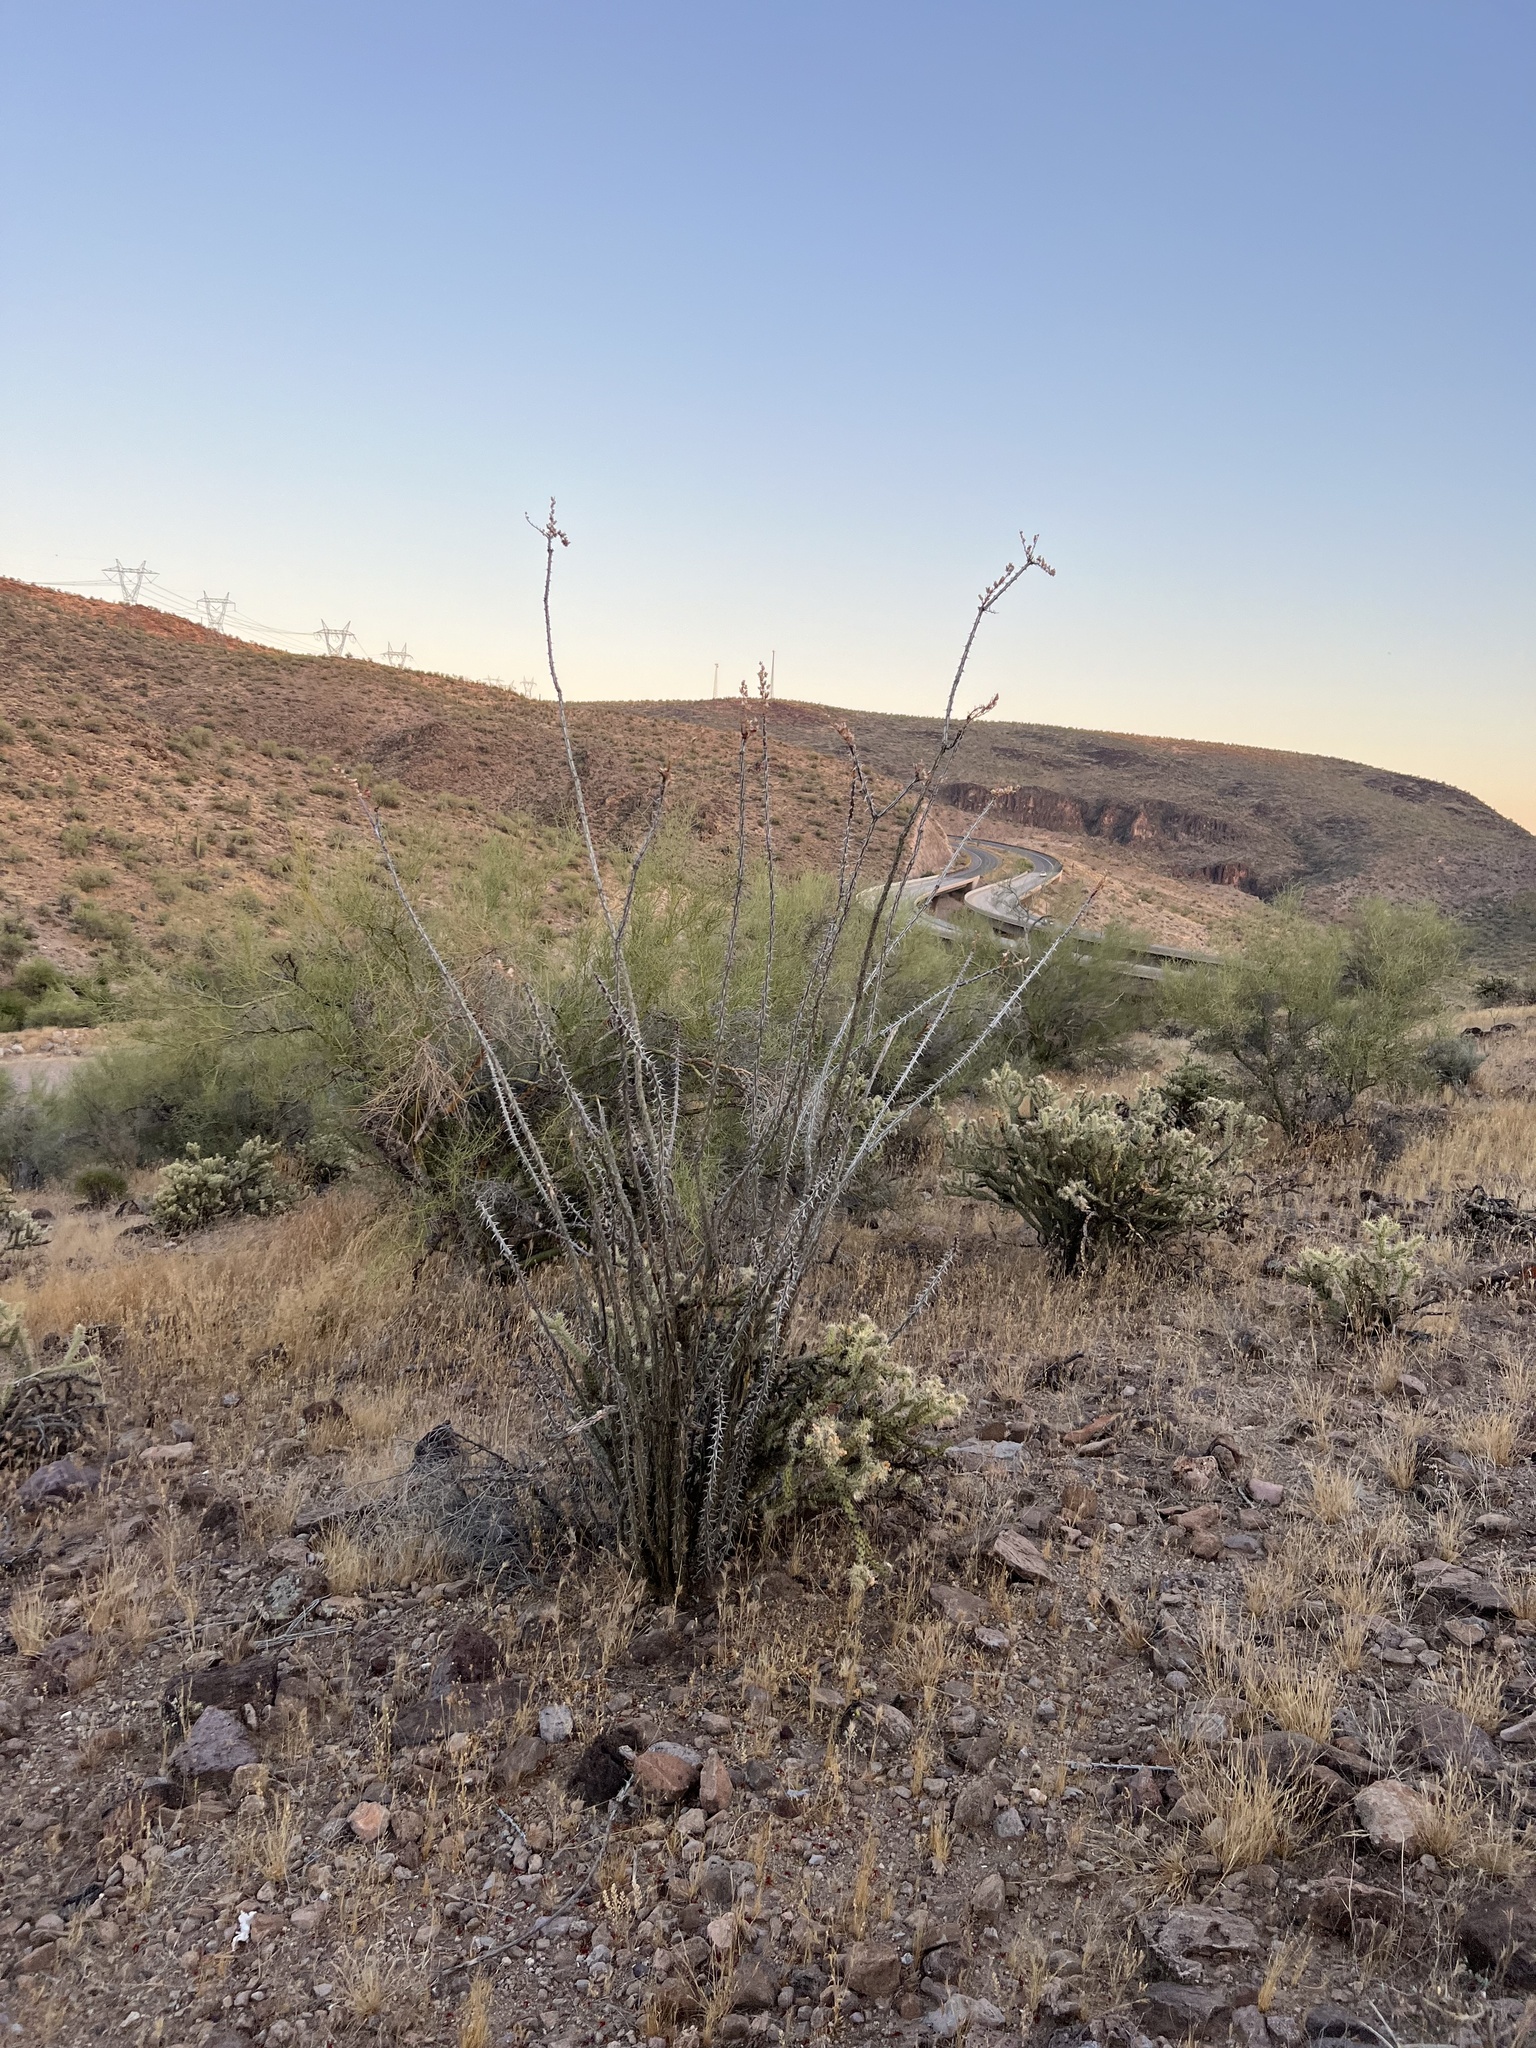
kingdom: Plantae
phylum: Tracheophyta
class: Magnoliopsida
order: Ericales
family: Fouquieriaceae
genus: Fouquieria
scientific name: Fouquieria splendens
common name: Vine-cactus
